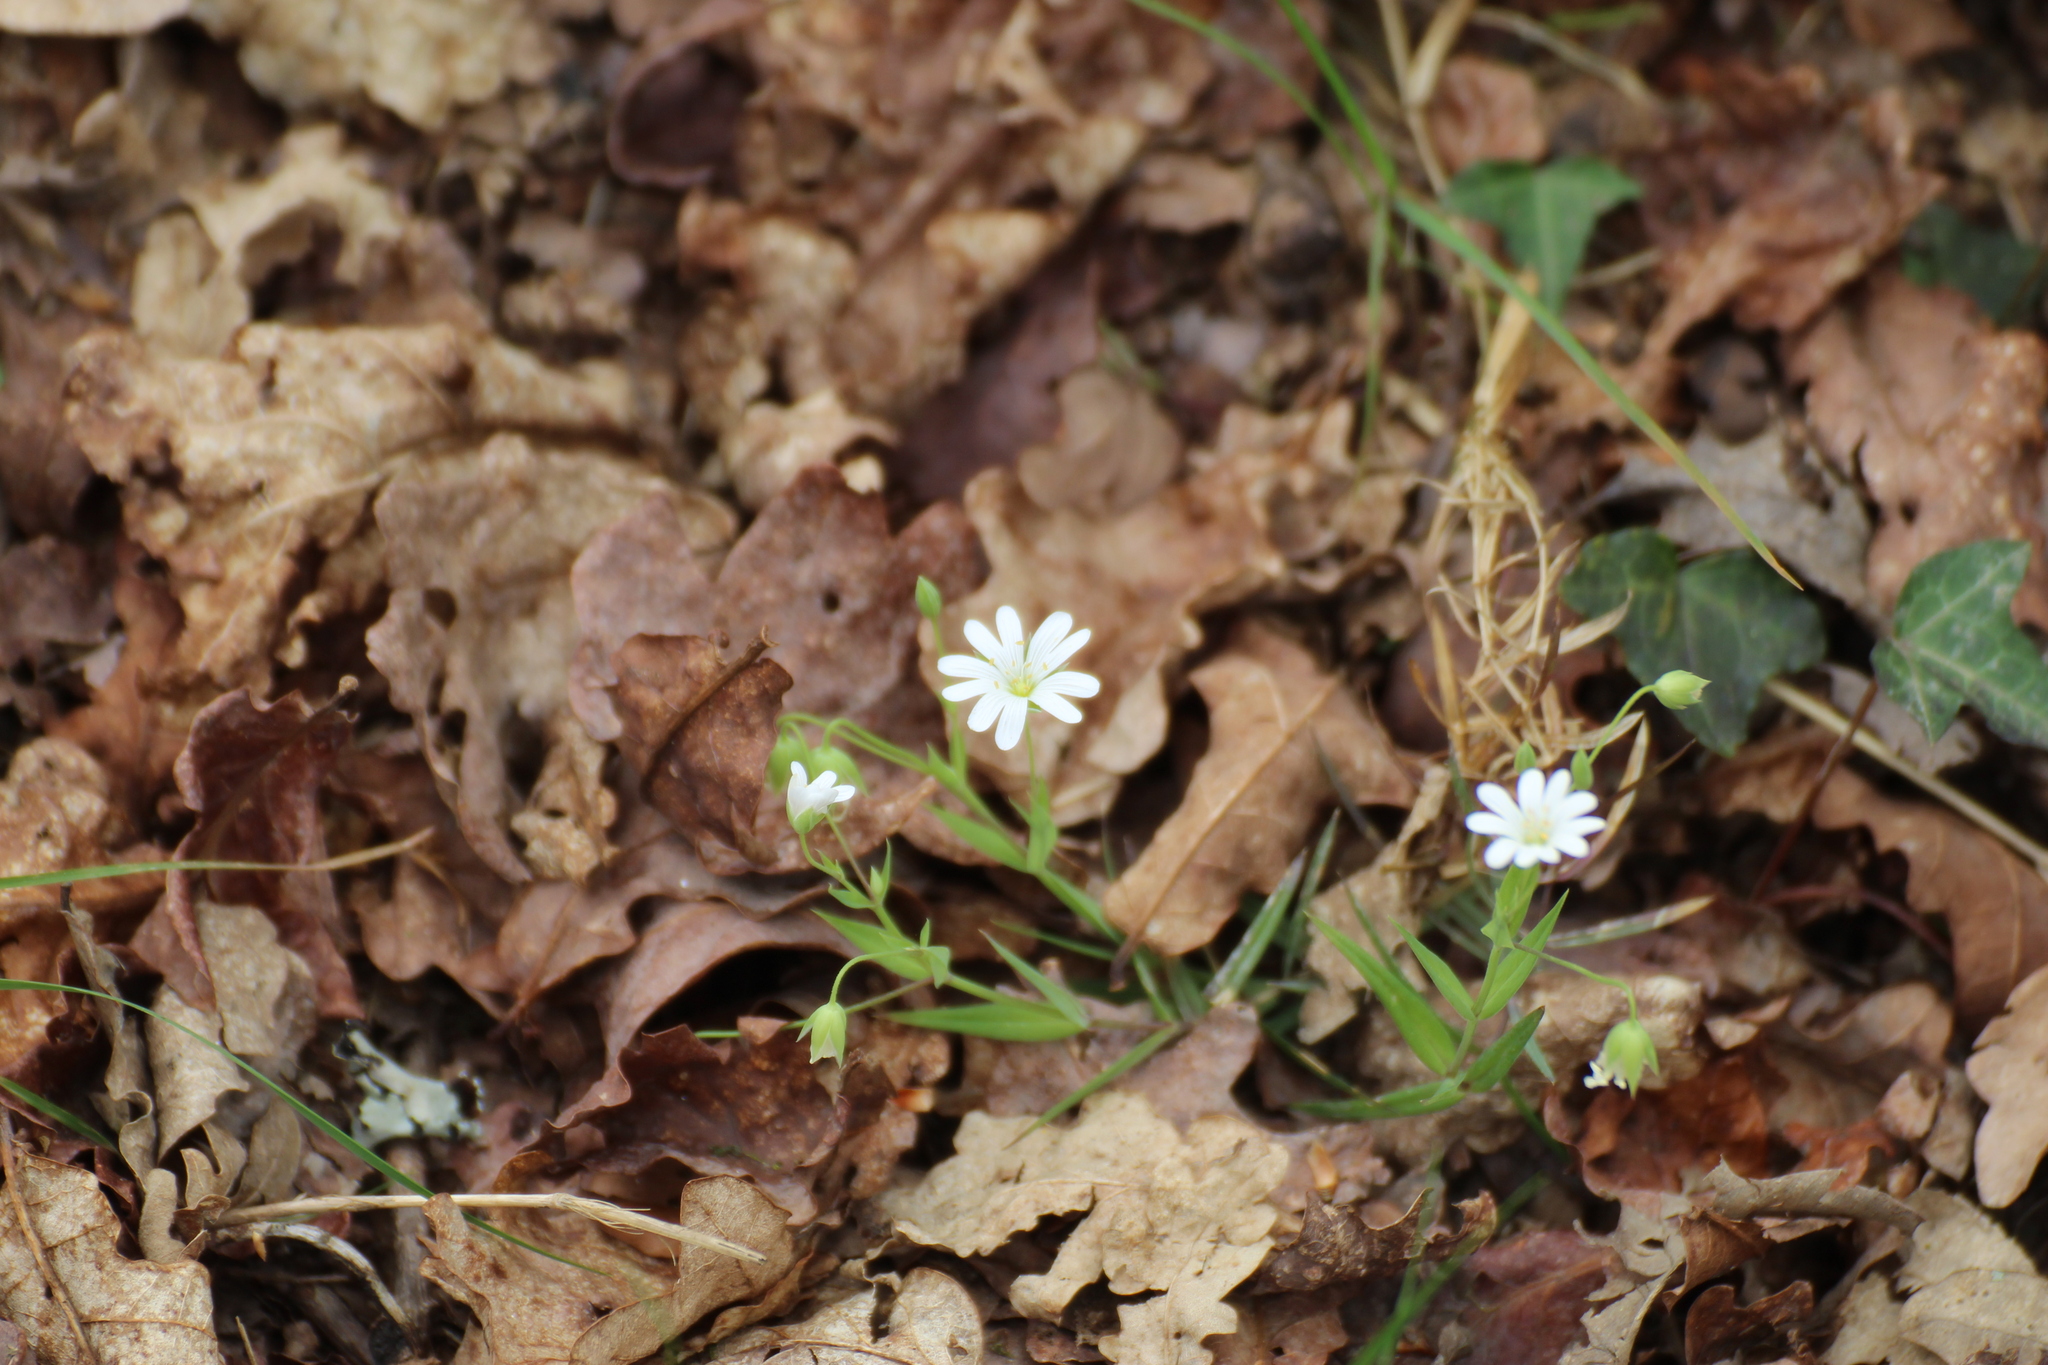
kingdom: Plantae
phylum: Tracheophyta
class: Magnoliopsida
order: Caryophyllales
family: Caryophyllaceae
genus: Rabelera
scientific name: Rabelera holostea
